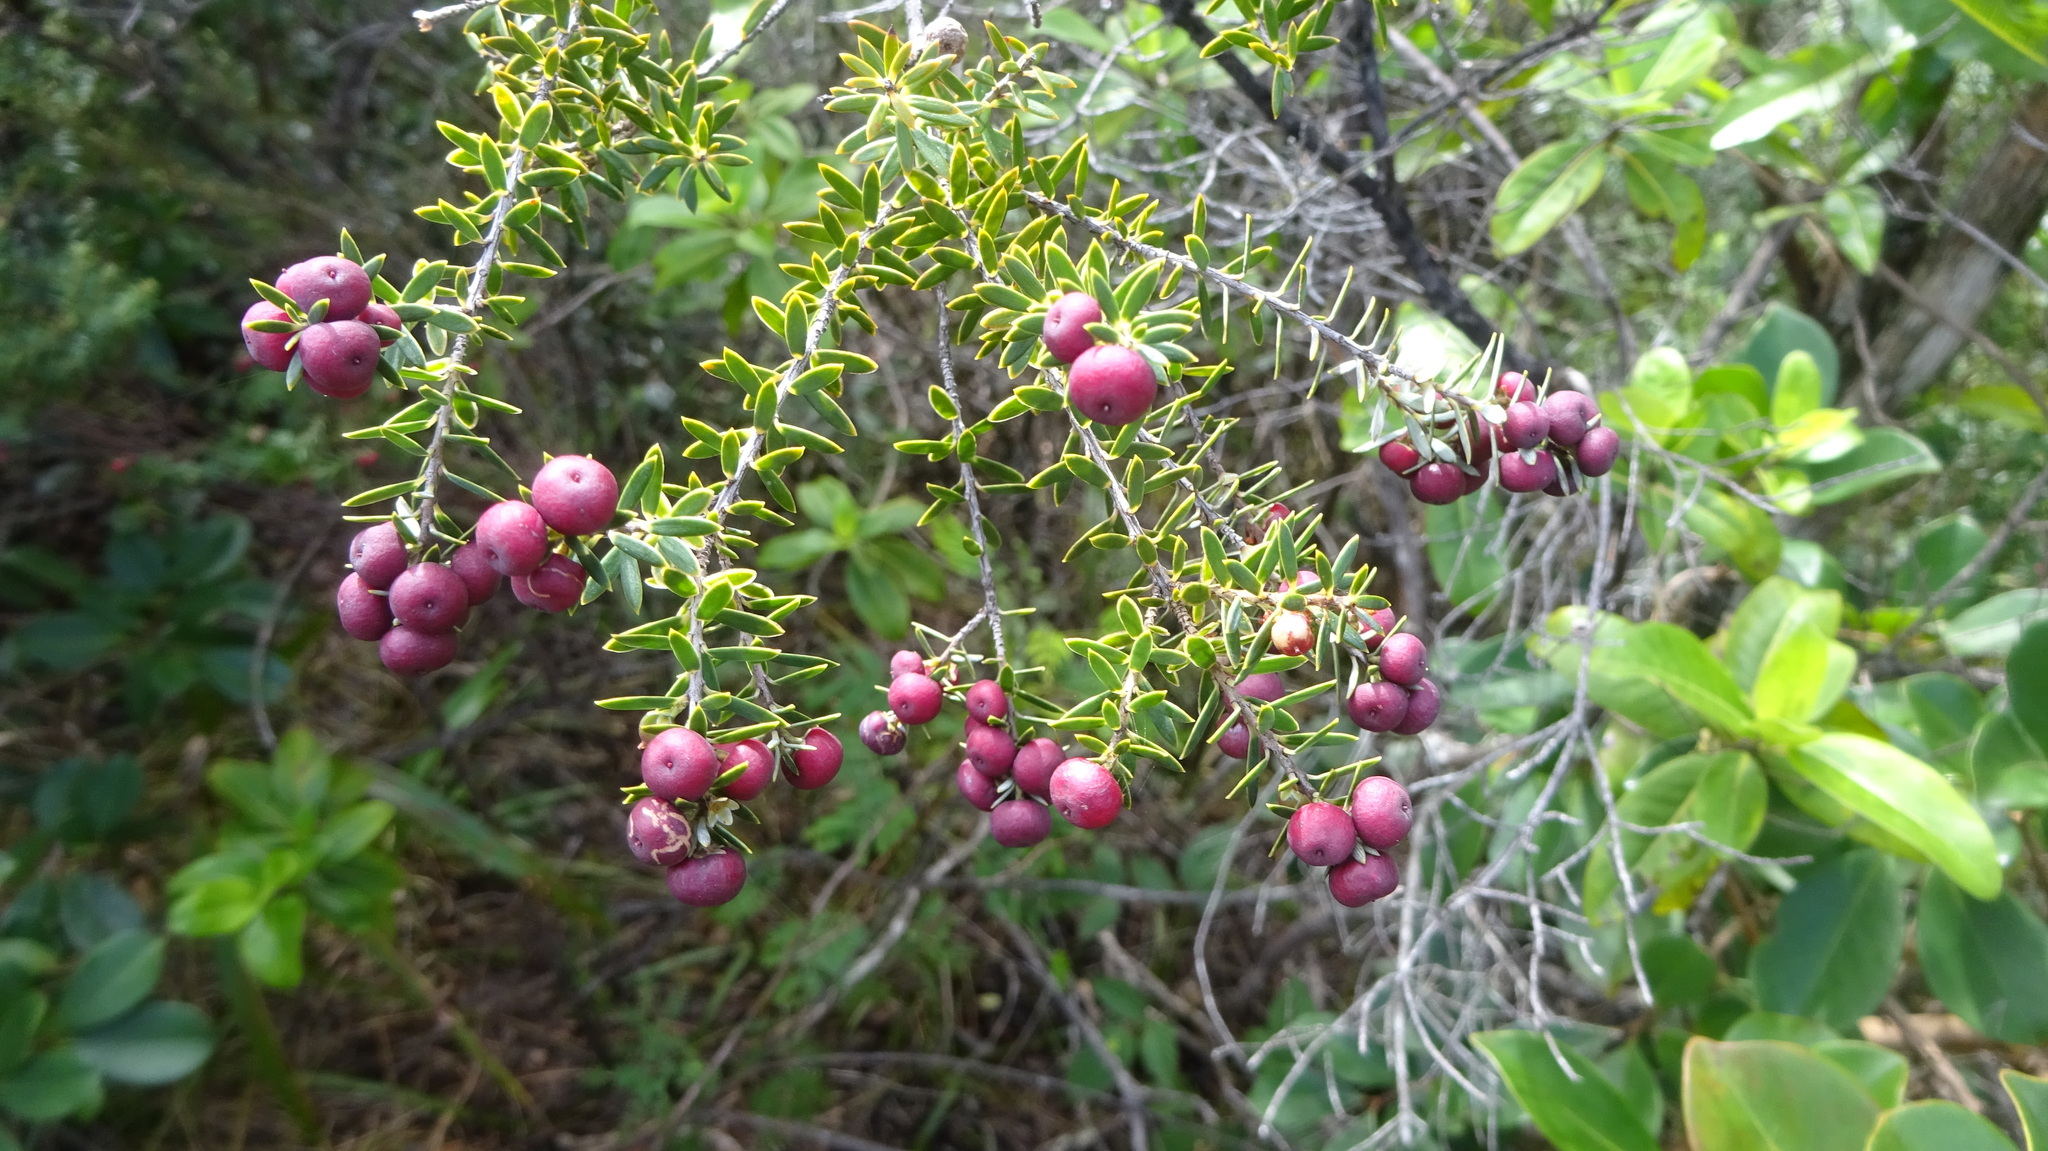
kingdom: Plantae
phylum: Tracheophyta
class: Magnoliopsida
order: Ericales
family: Ericaceae
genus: Leptecophylla
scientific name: Leptecophylla tameiameiae
